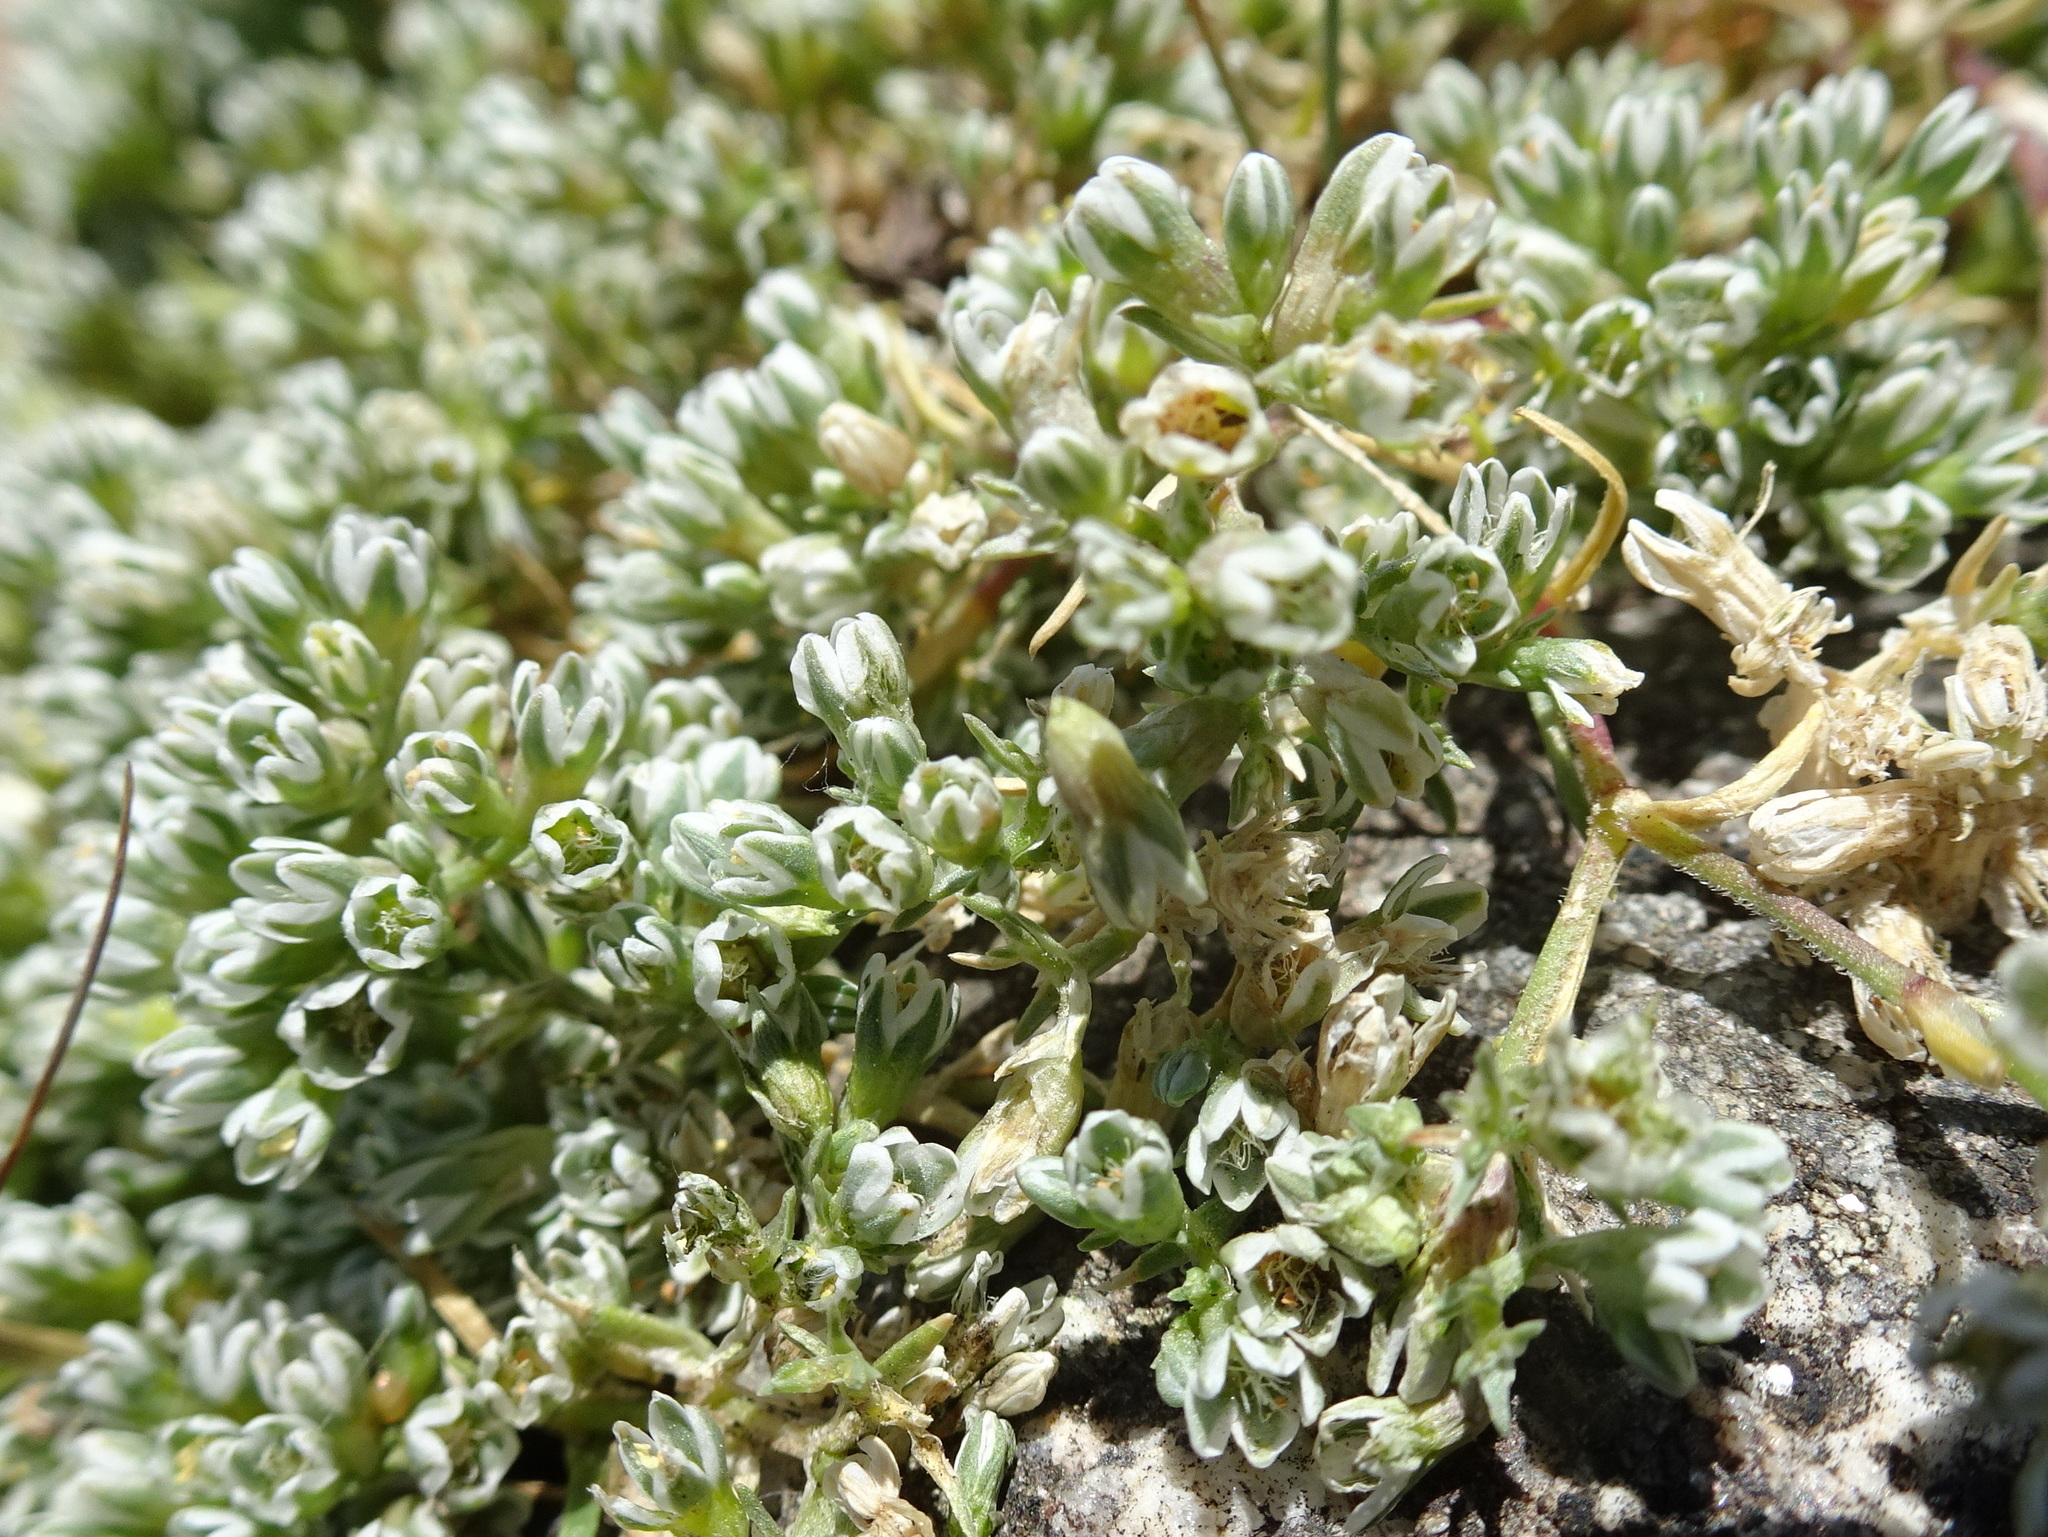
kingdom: Plantae
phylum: Tracheophyta
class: Magnoliopsida
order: Caryophyllales
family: Caryophyllaceae
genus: Scleranthus
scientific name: Scleranthus perennis
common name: Perennial knawel
